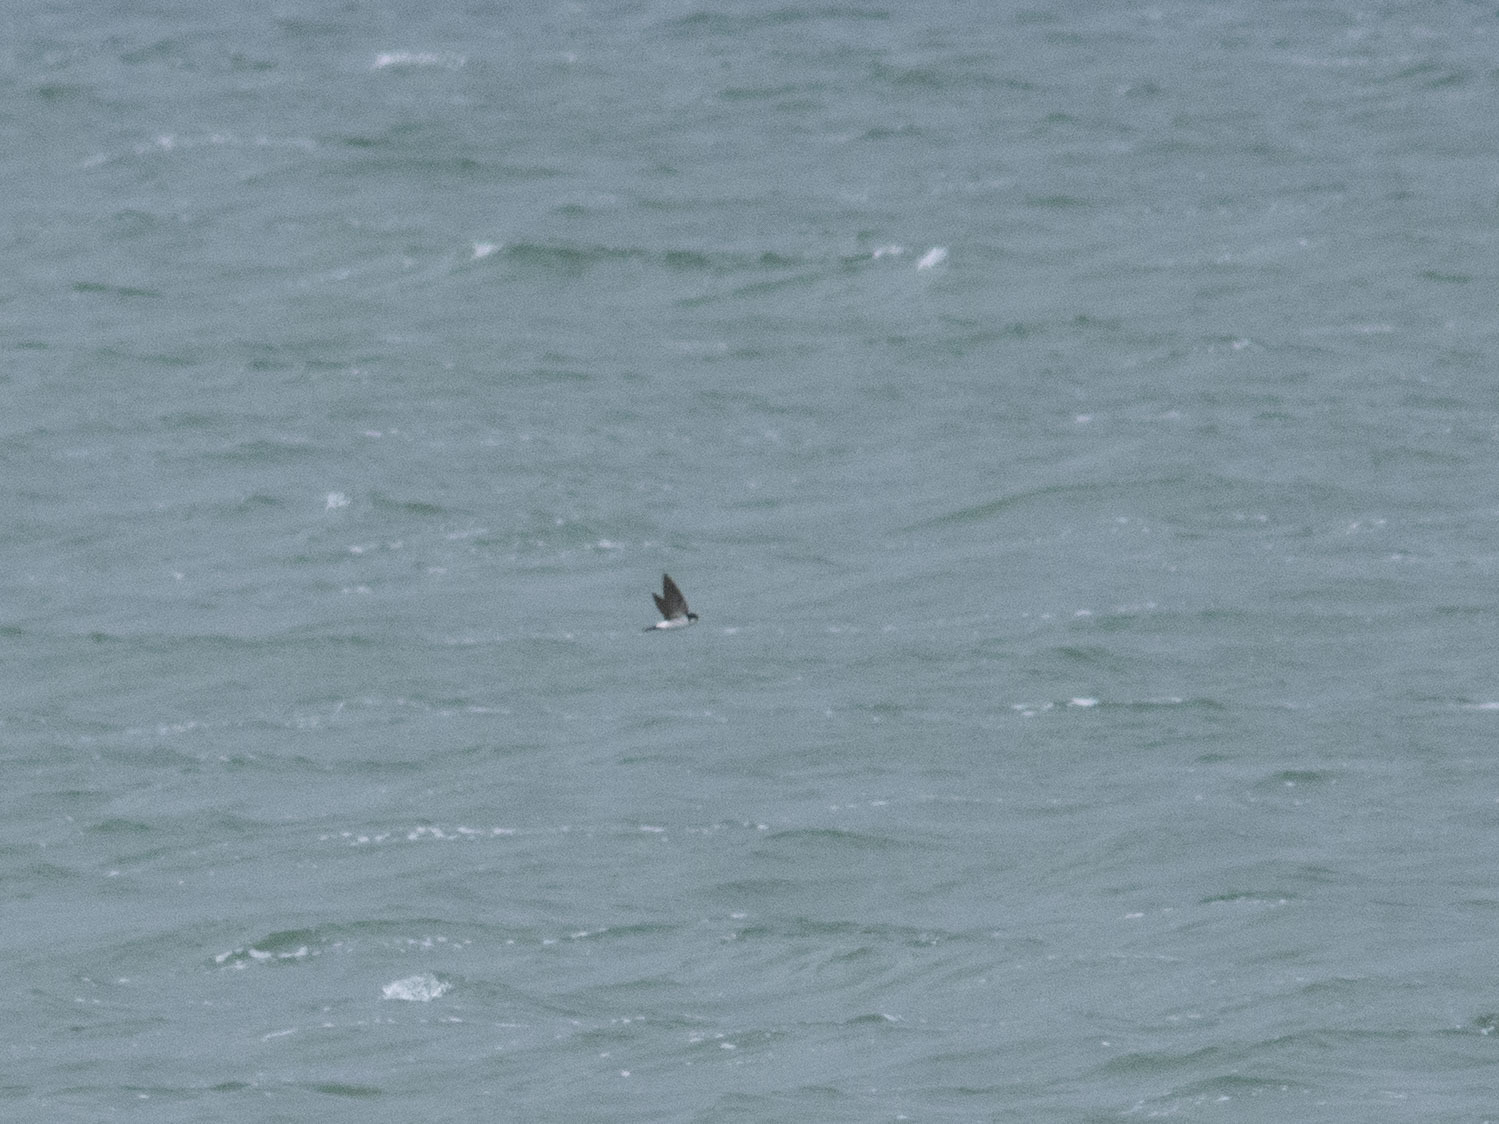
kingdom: Animalia
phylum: Chordata
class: Aves
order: Passeriformes
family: Hirundinidae
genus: Delichon
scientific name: Delichon urbicum
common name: Common house martin
